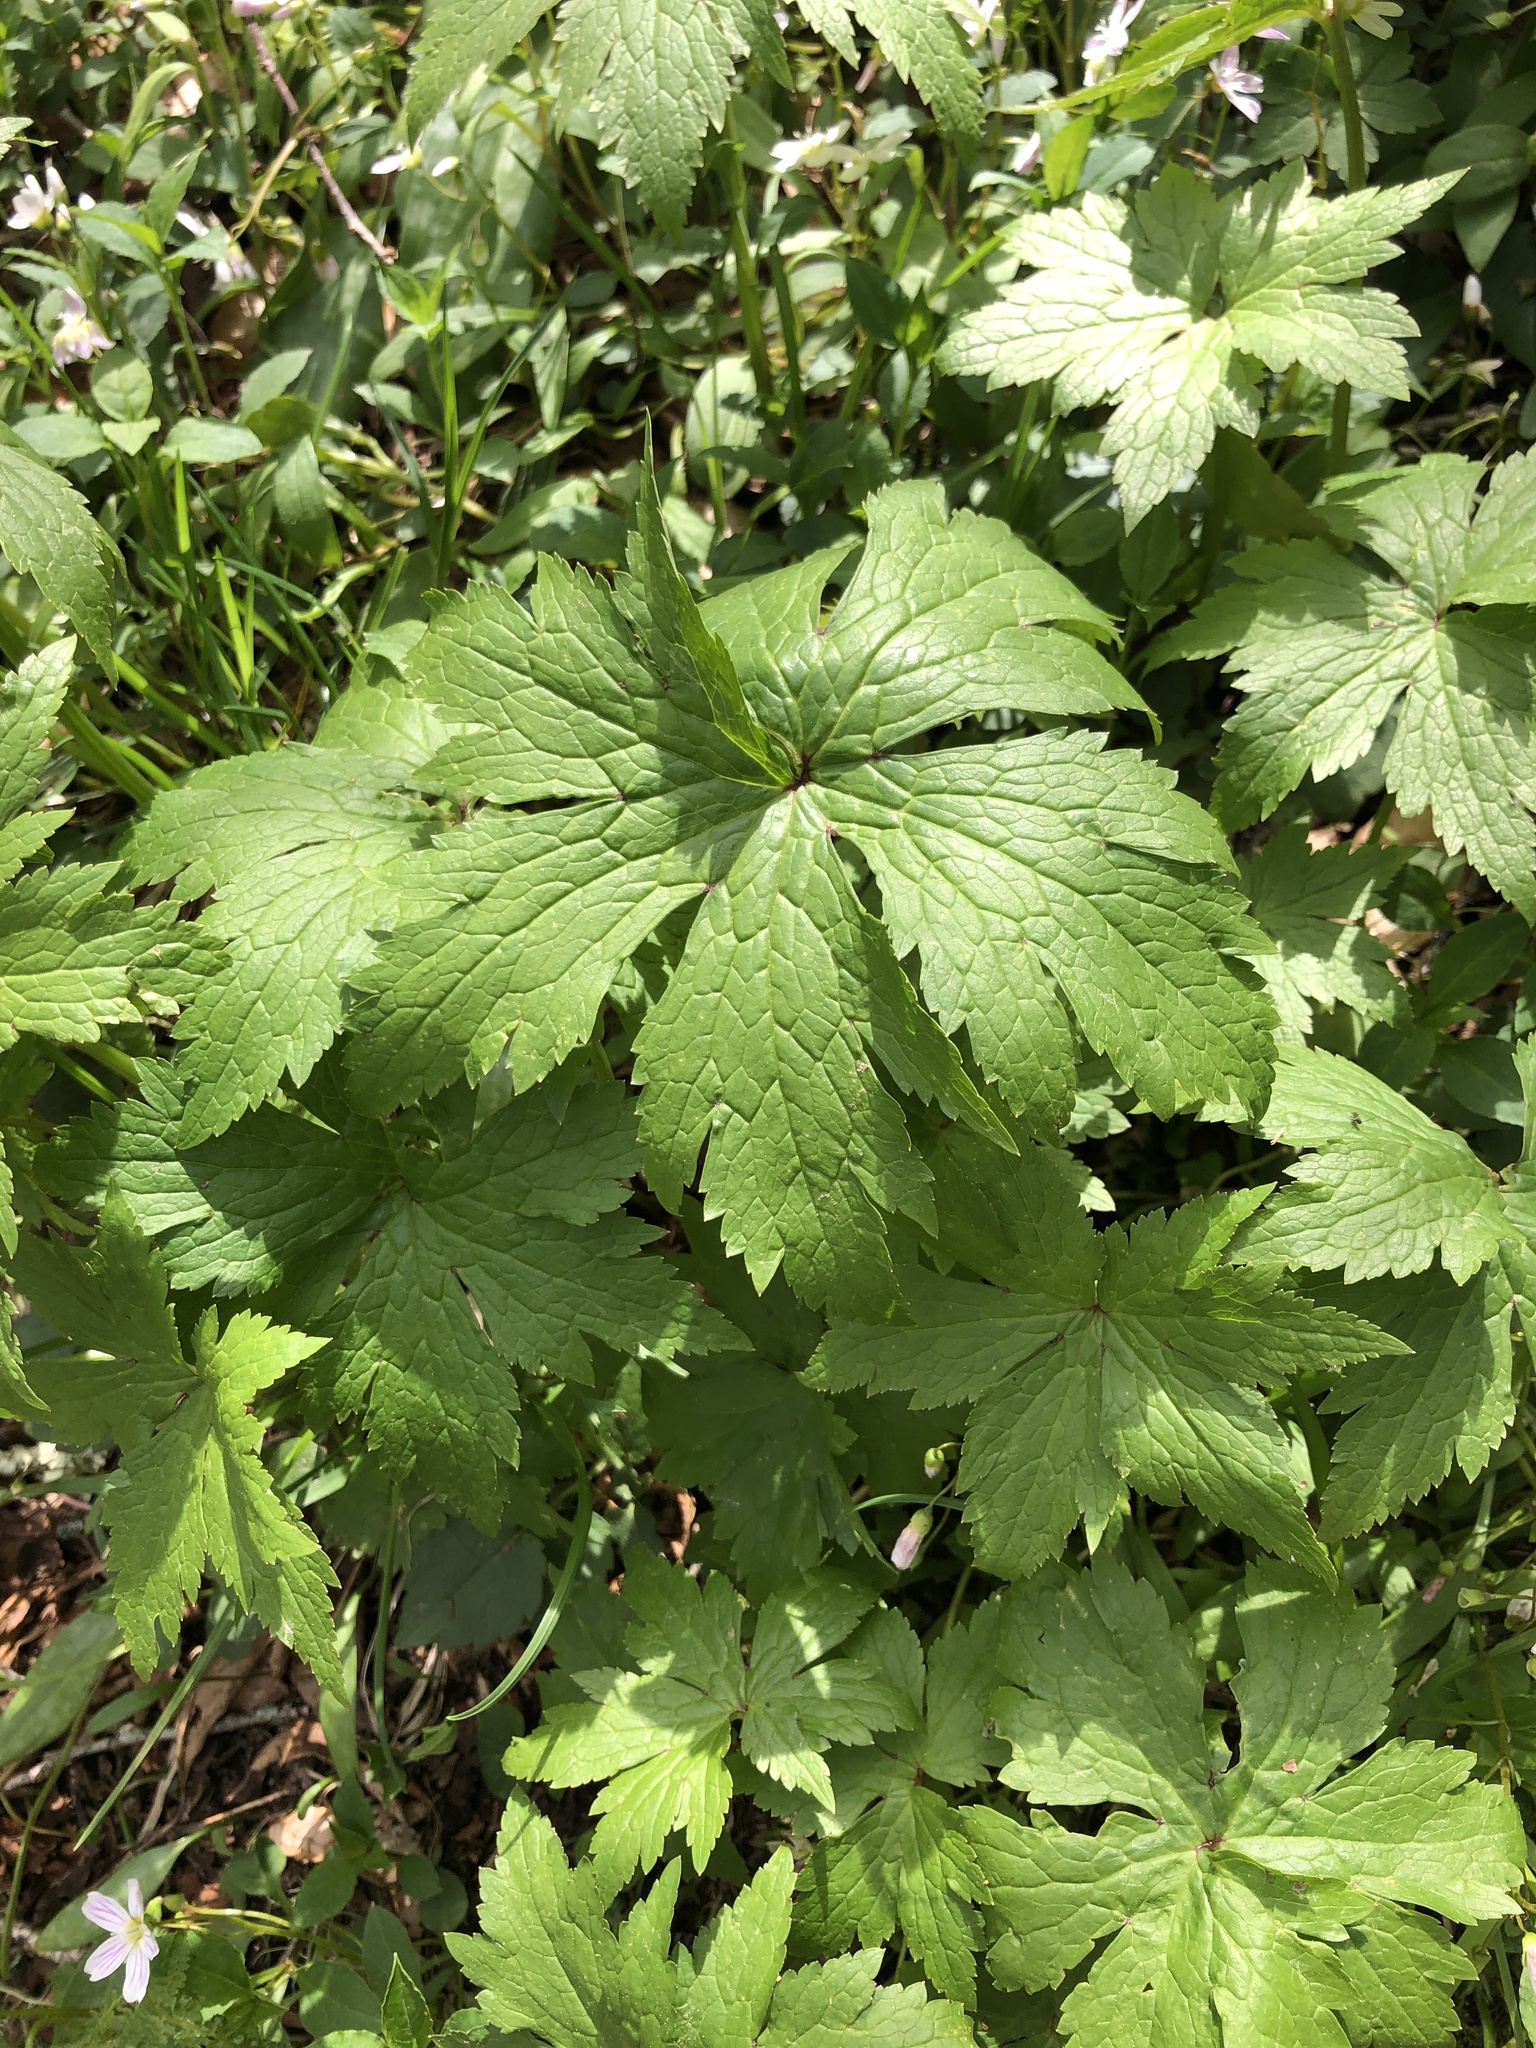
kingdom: Plantae
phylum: Tracheophyta
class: Magnoliopsida
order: Ranunculales
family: Ranunculaceae
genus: Trautvetteria
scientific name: Trautvetteria carolinensis
